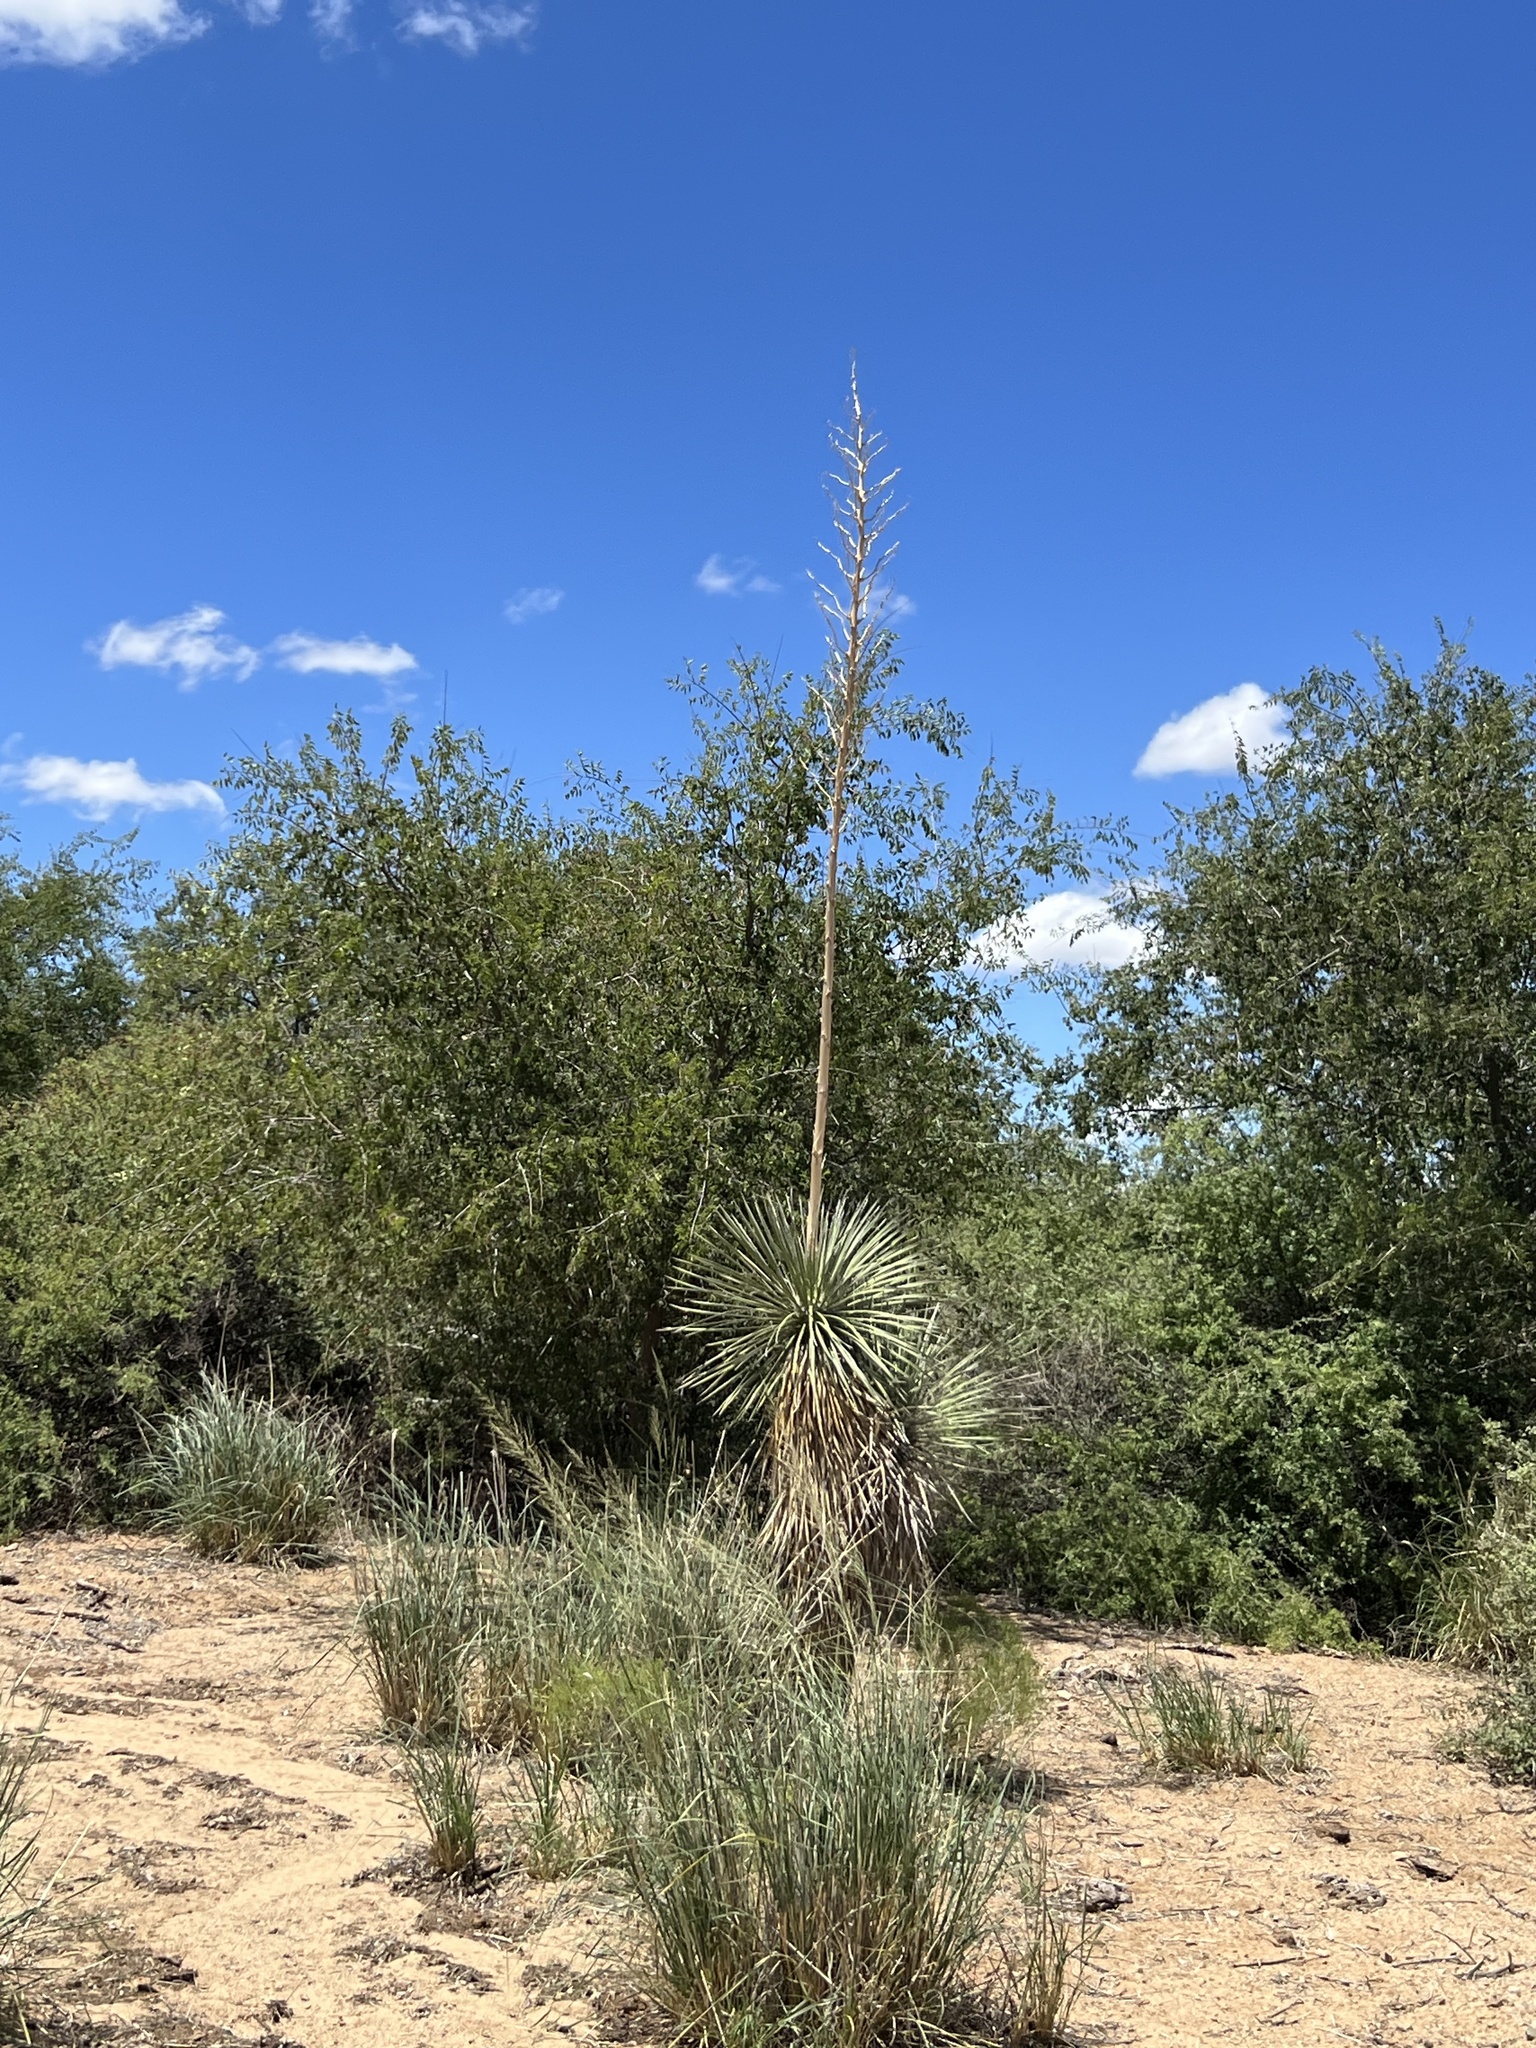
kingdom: Plantae
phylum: Tracheophyta
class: Liliopsida
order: Asparagales
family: Asparagaceae
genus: Yucca
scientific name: Yucca elata
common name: Palmella
